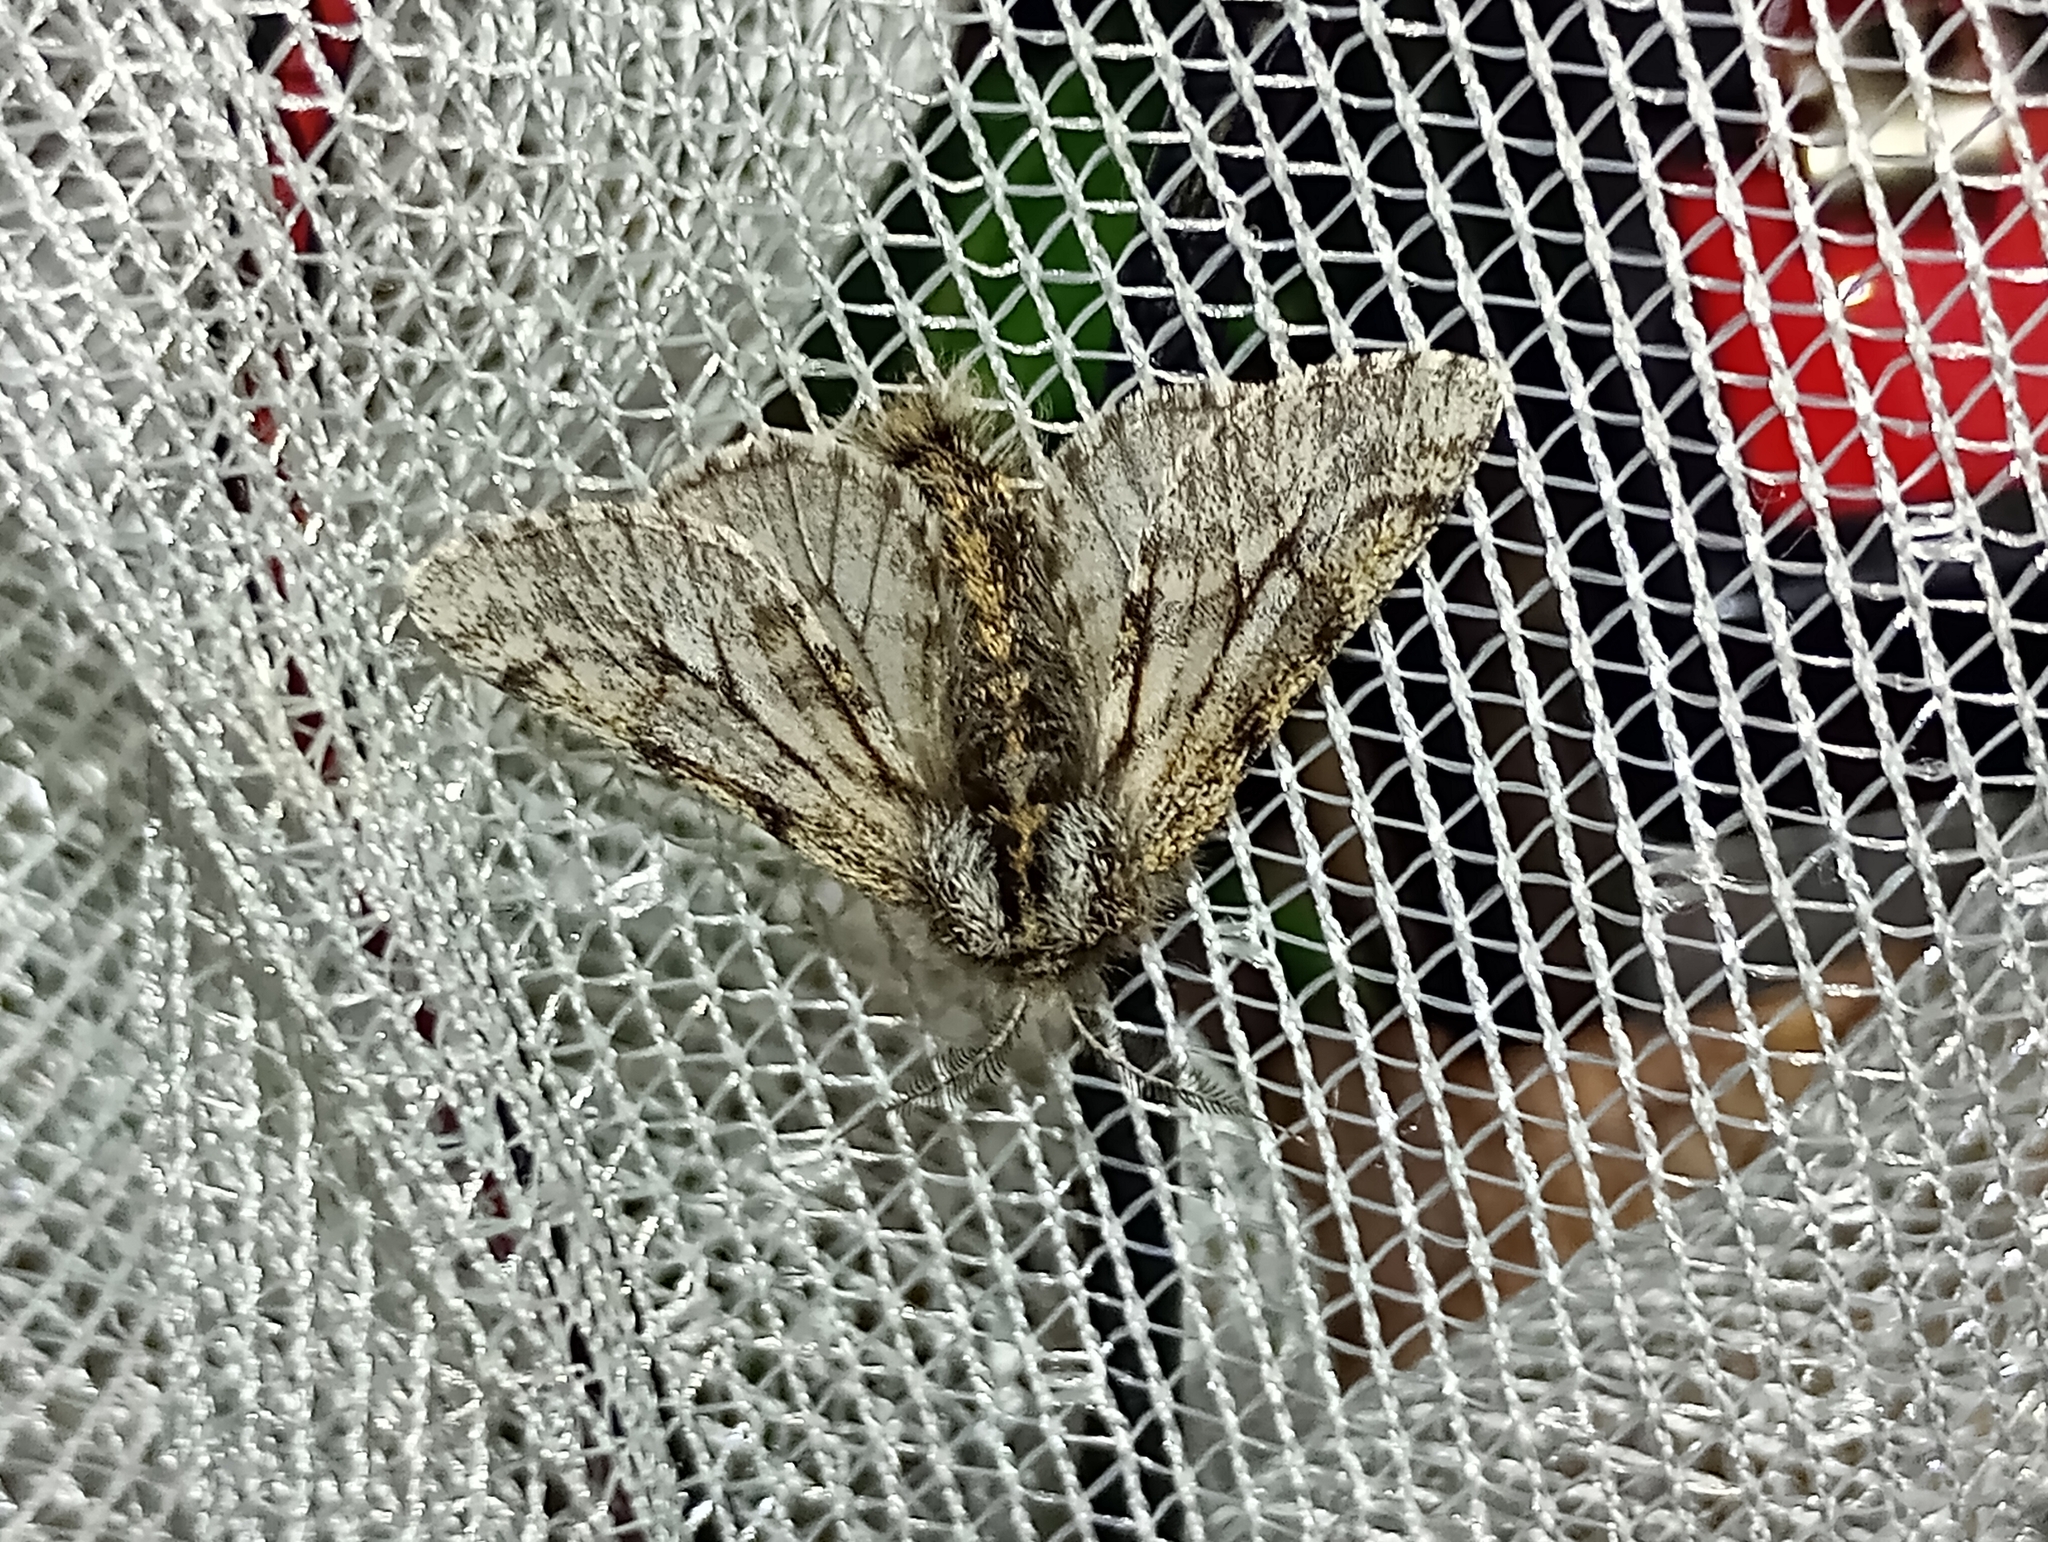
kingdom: Animalia
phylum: Arthropoda
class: Insecta
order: Lepidoptera
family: Geometridae
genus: Lycia
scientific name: Lycia pomonaria
